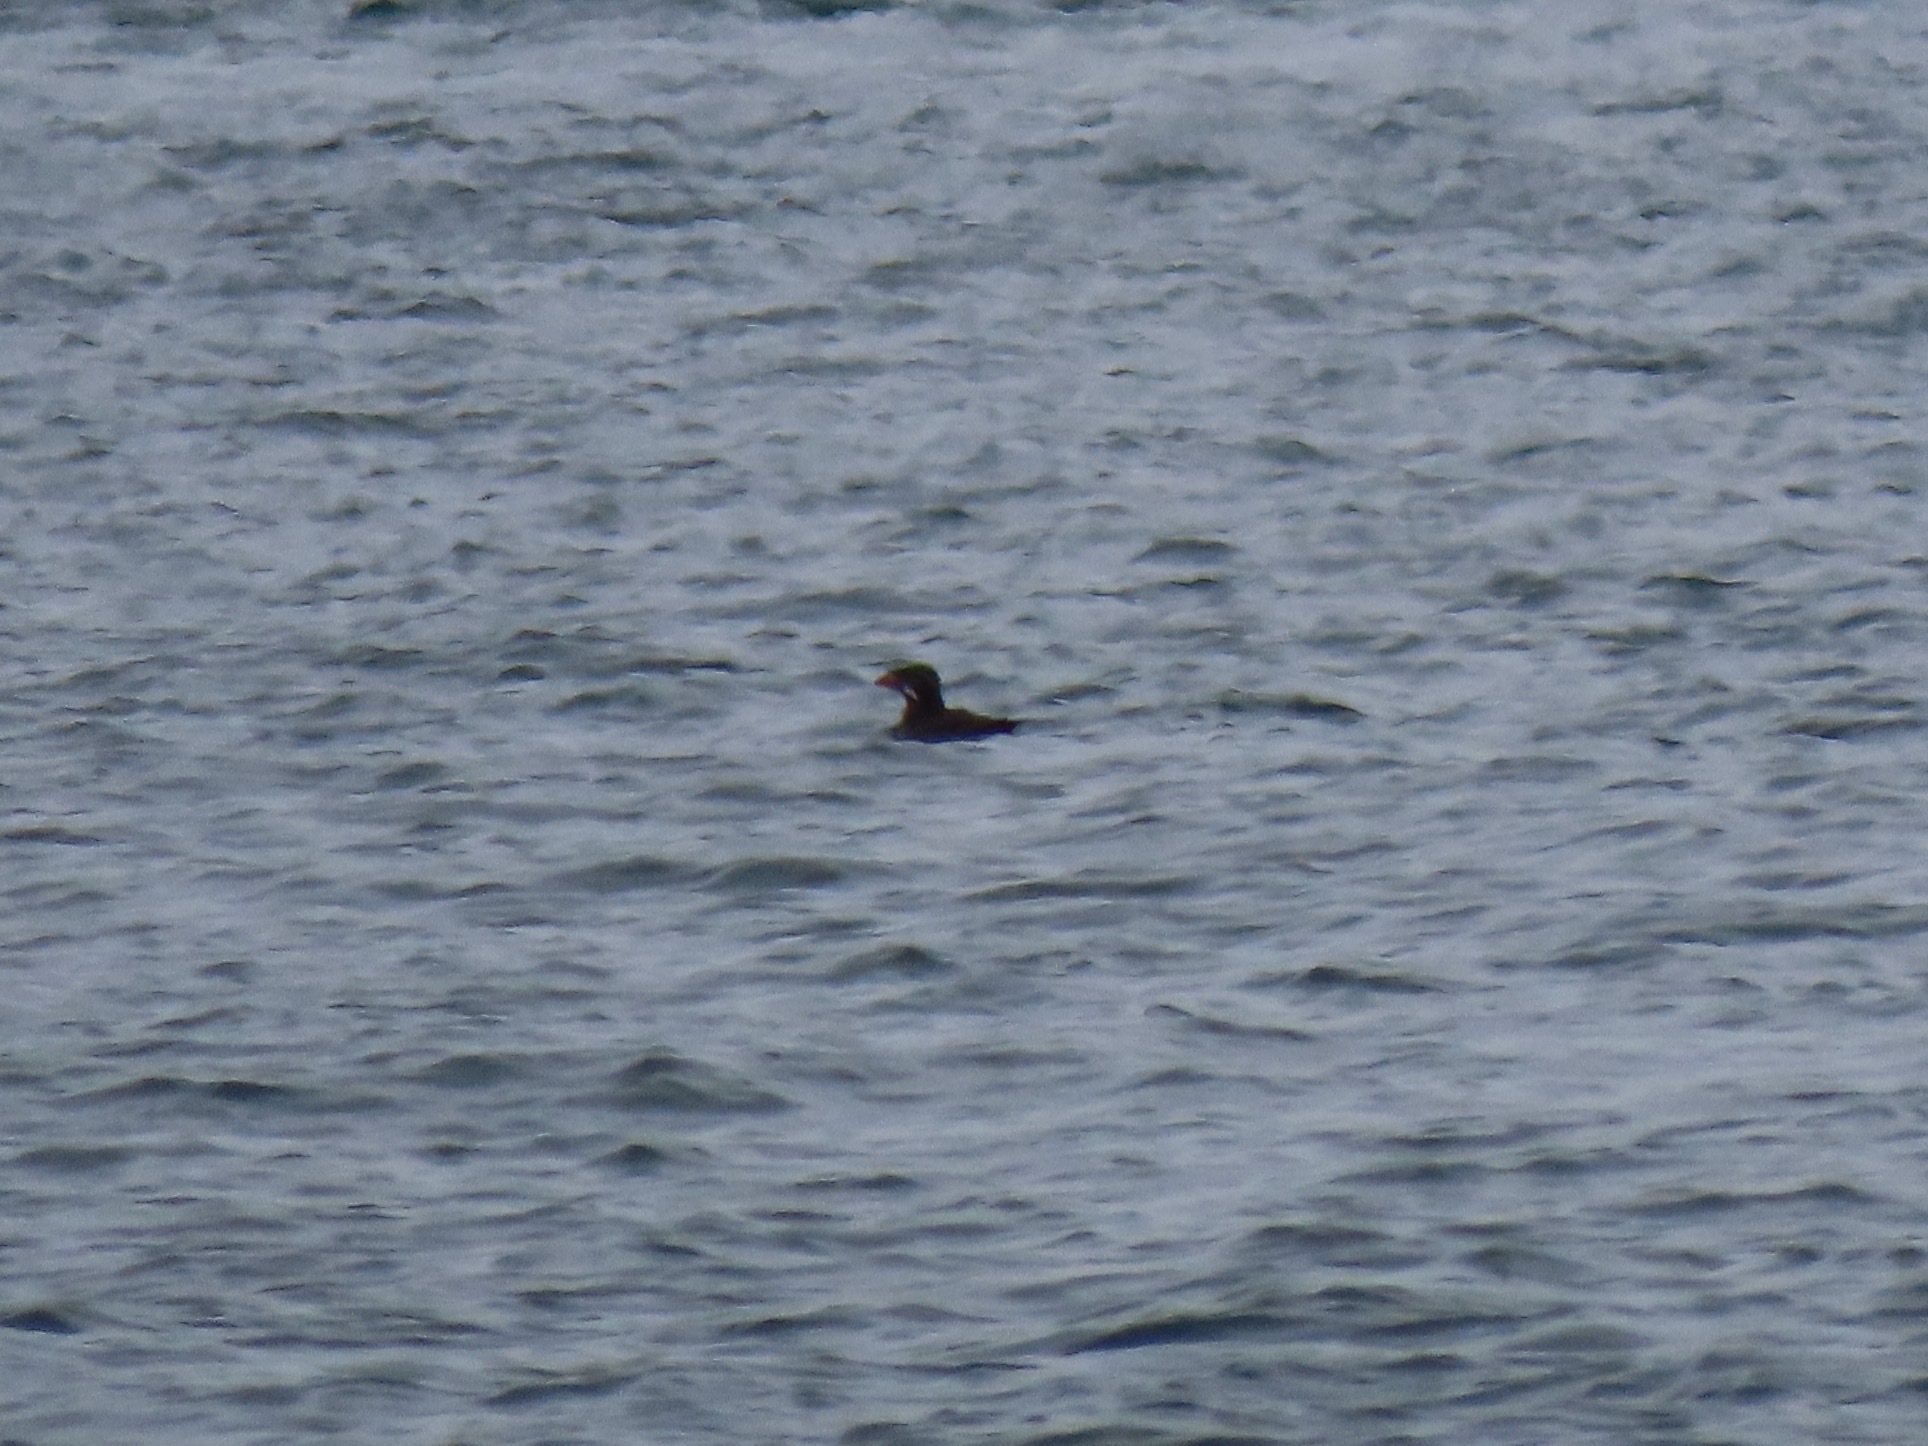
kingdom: Animalia
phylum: Chordata
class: Aves
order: Charadriiformes
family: Alcidae
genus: Cerorhinca
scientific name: Cerorhinca monocerata
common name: Rhinoceros auklet
